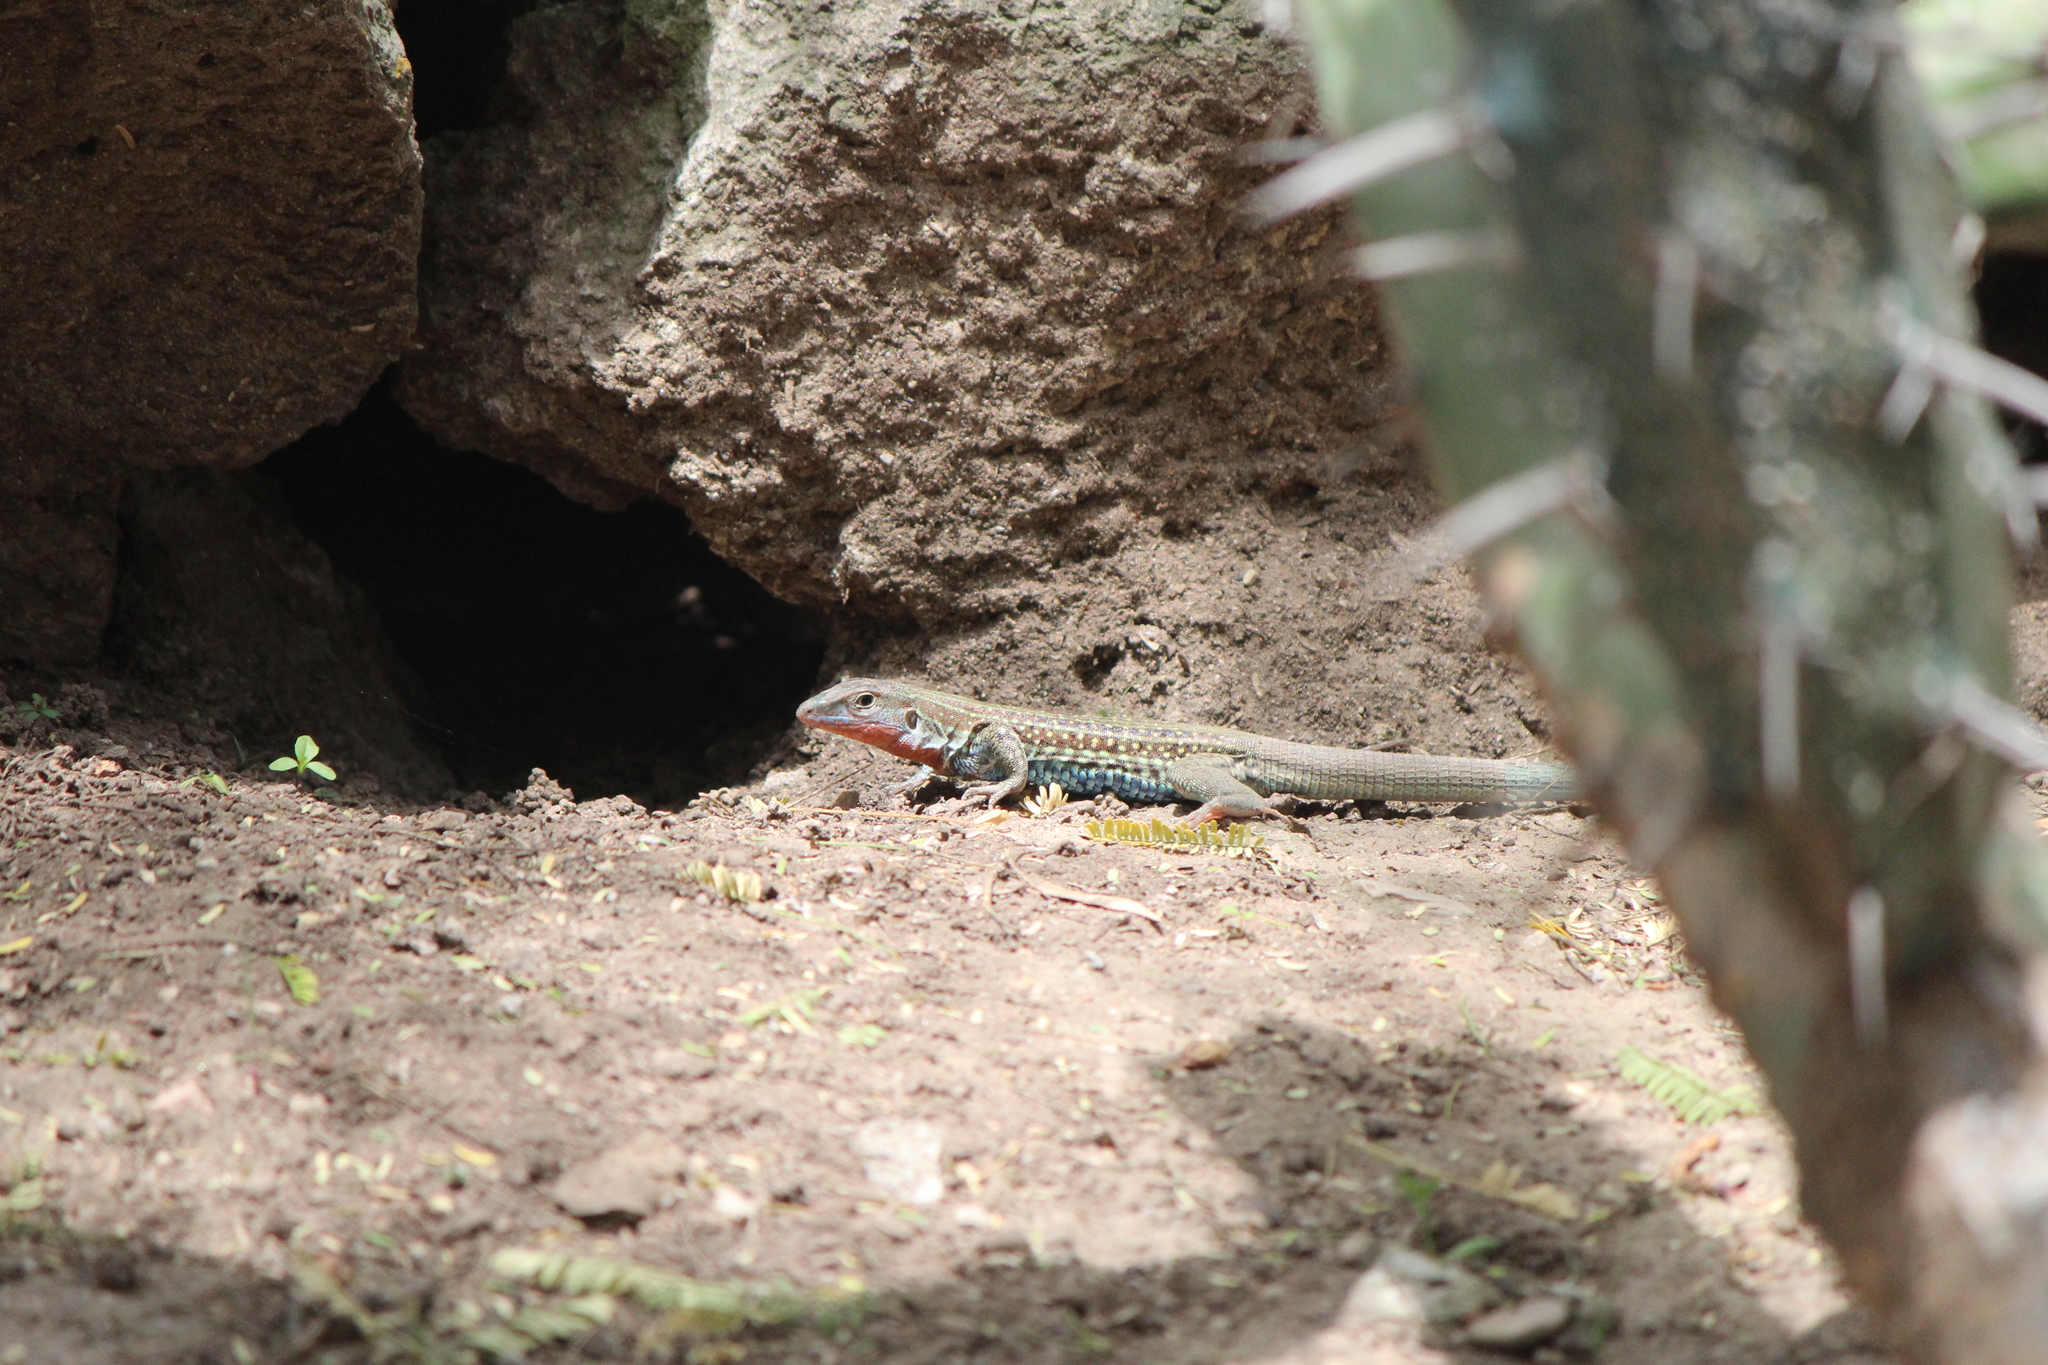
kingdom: Animalia
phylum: Chordata
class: Squamata
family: Teiidae
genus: Aspidoscelis
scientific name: Aspidoscelis gularis
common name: Eastern spotted whiptail
